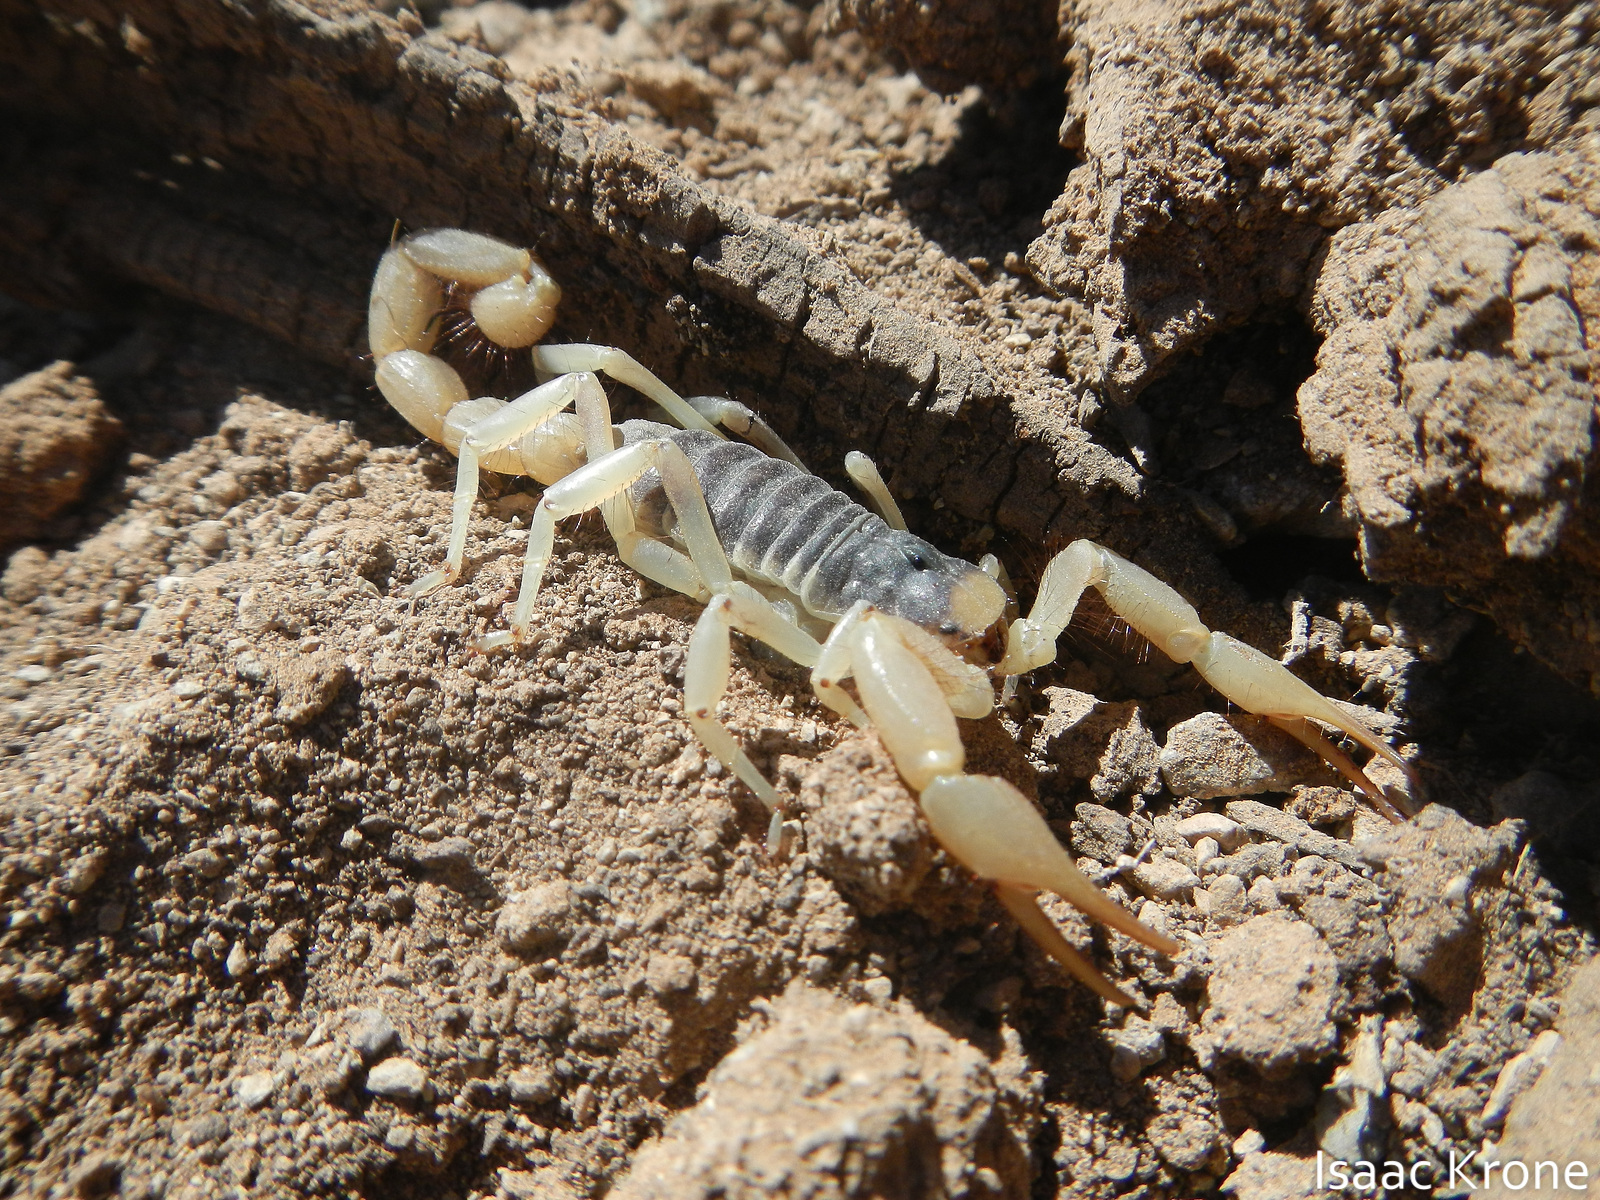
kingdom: Animalia
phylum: Arthropoda
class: Arachnida
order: Scorpiones
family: Hadruridae
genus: Hadrurus
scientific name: Hadrurus arizonensis
